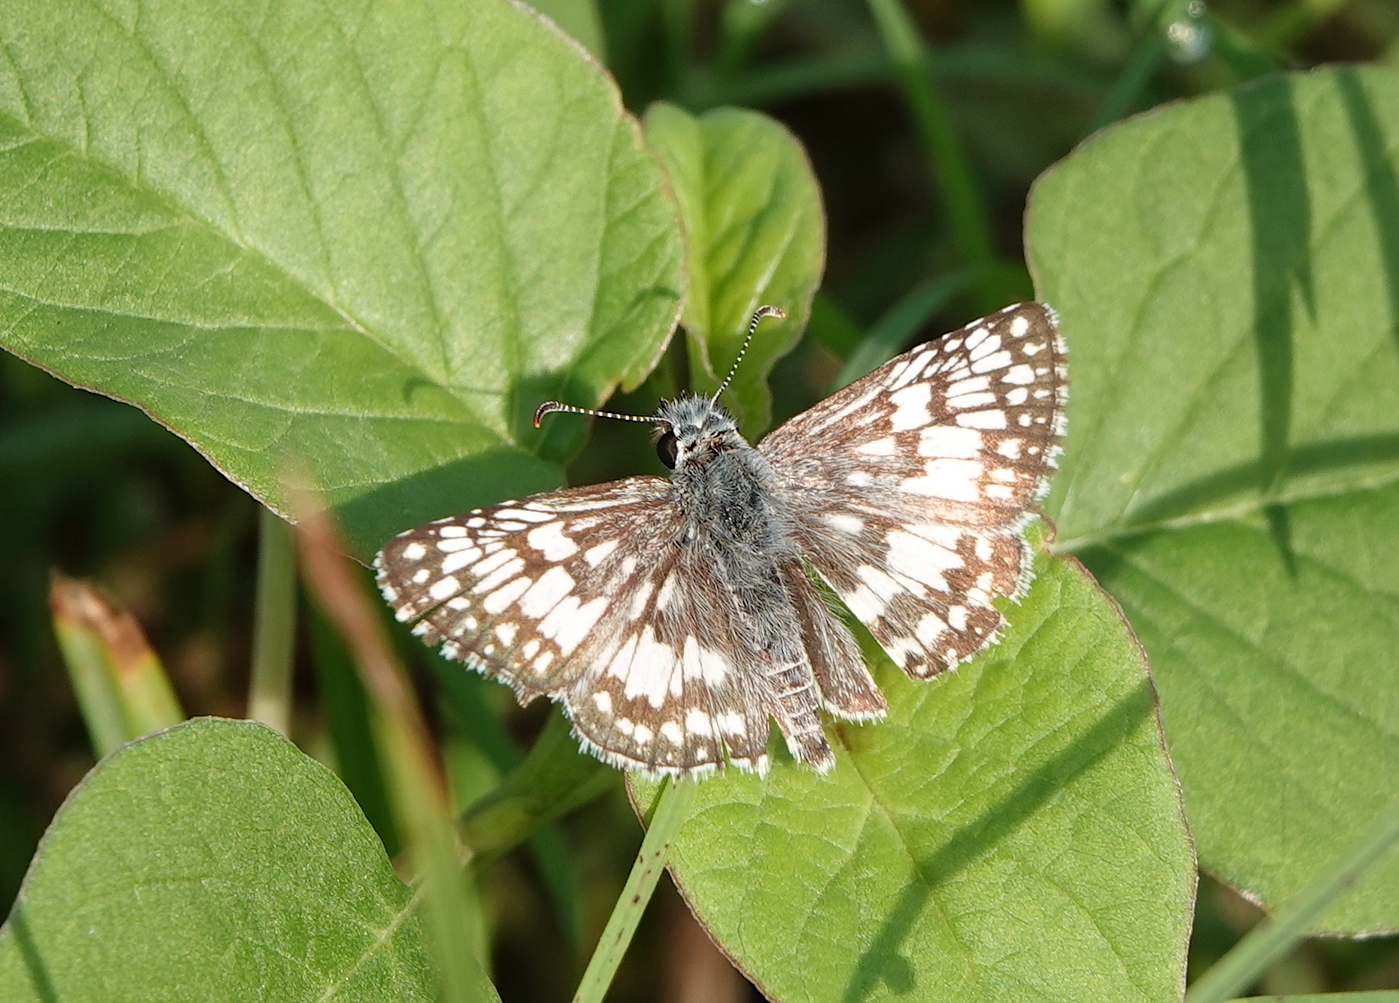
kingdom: Animalia
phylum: Arthropoda
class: Insecta
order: Lepidoptera
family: Hesperiidae
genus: Burnsius
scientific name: Burnsius albezens
